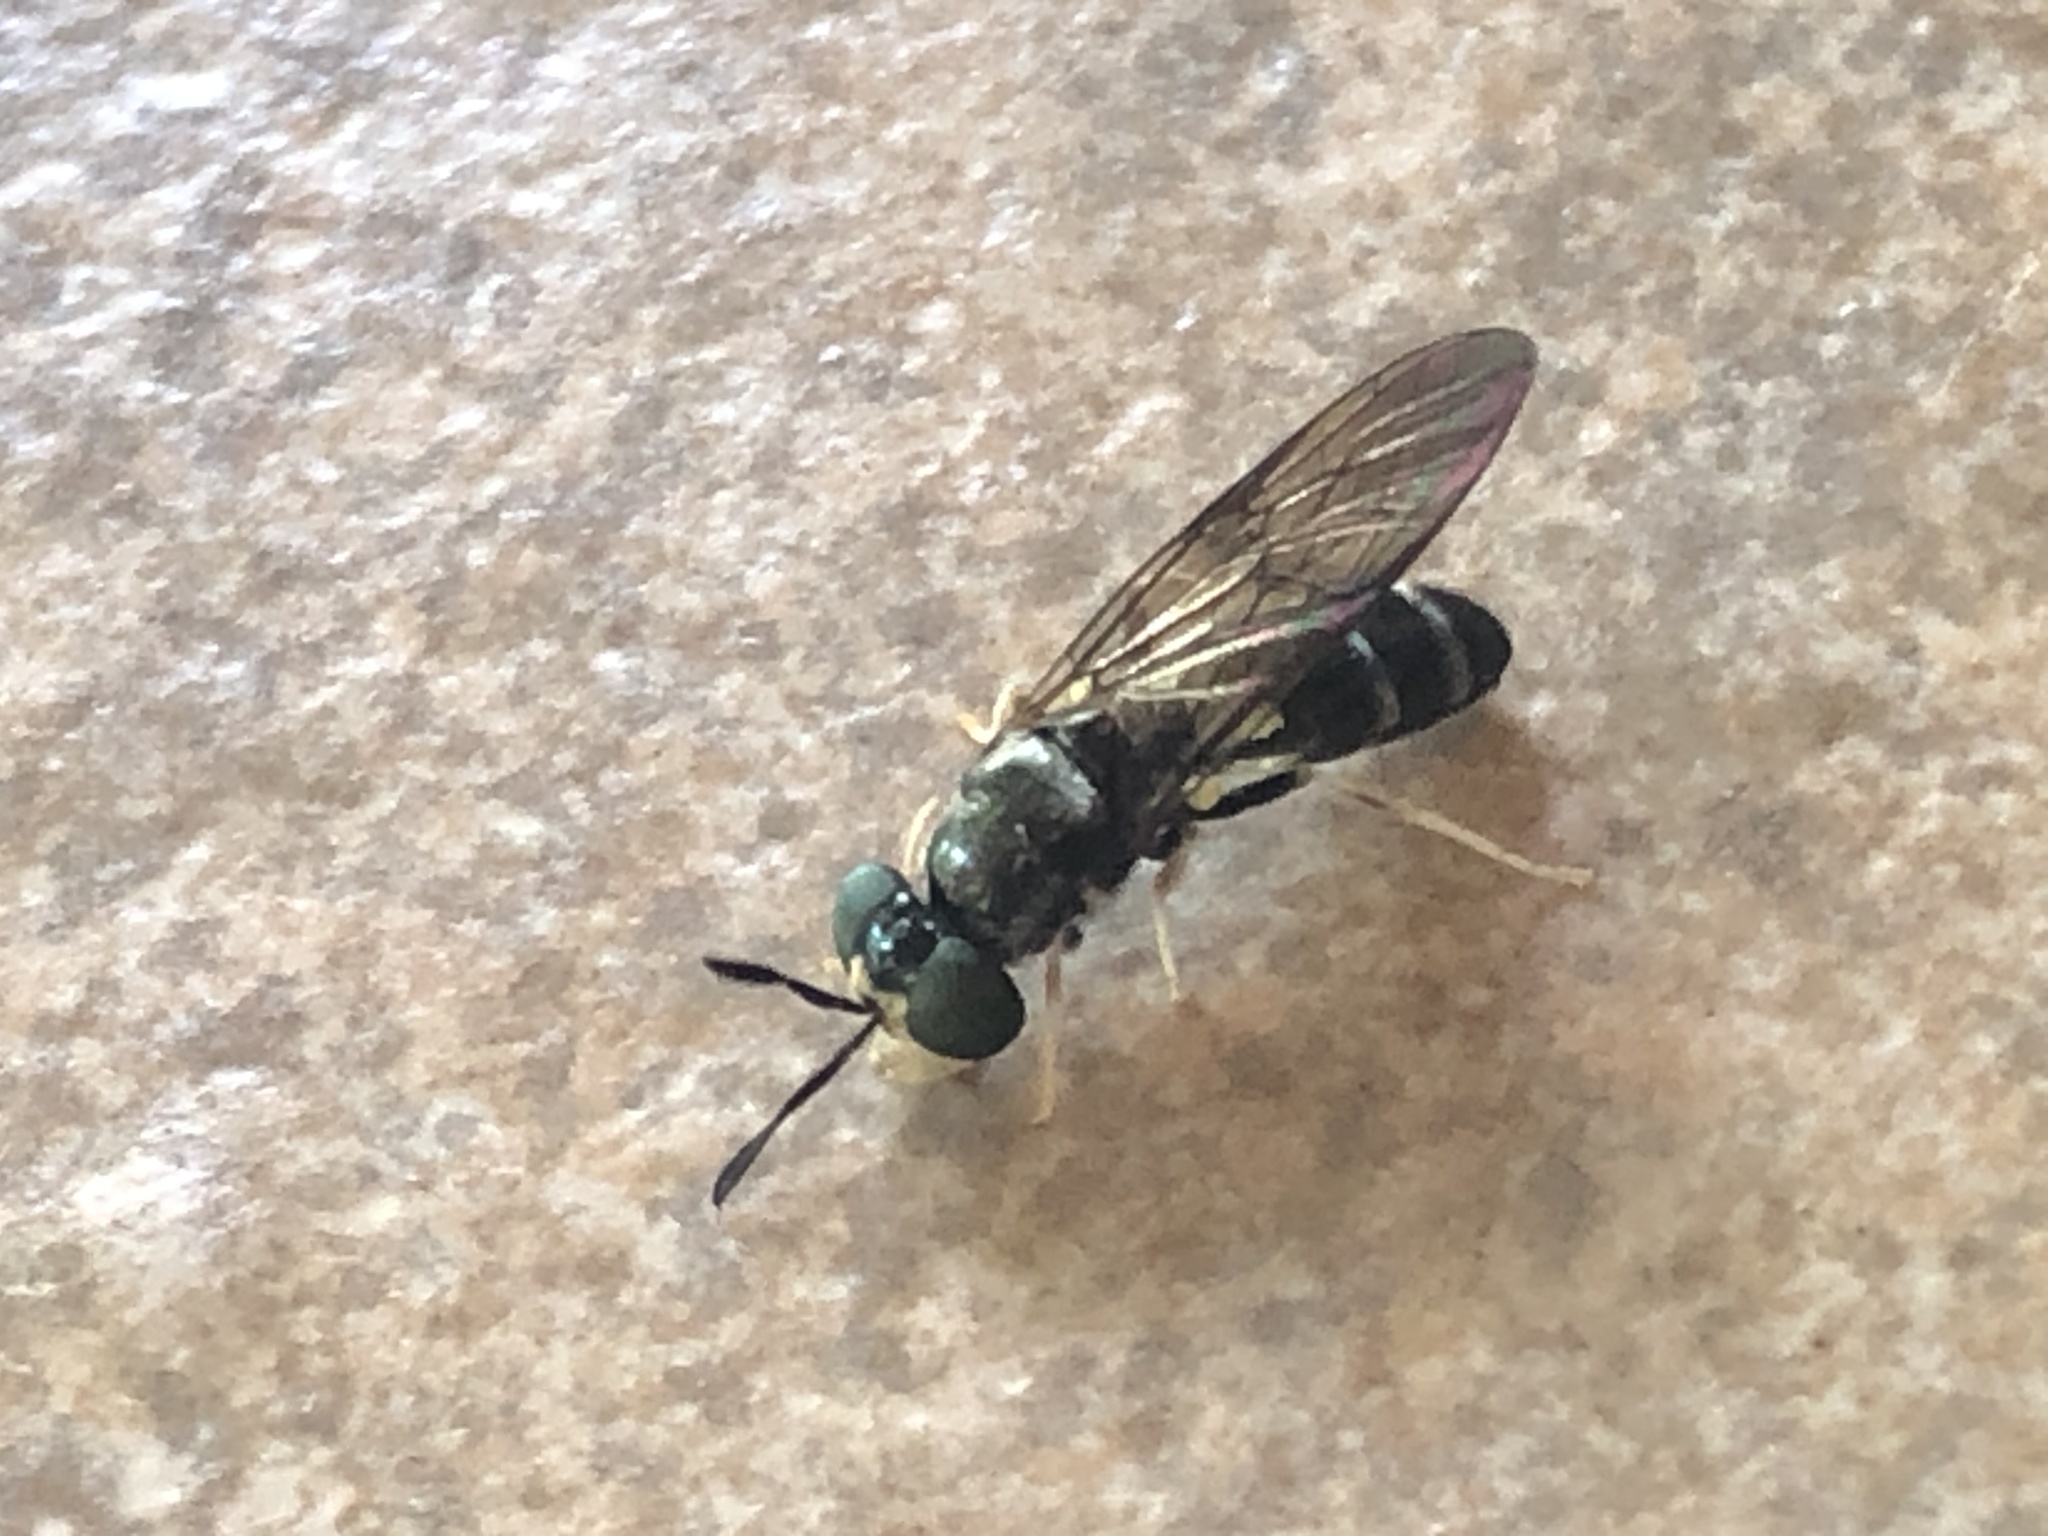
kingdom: Animalia
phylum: Arthropoda
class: Insecta
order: Diptera
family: Stratiomyidae
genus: Hermetia
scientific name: Hermetia flavipes
